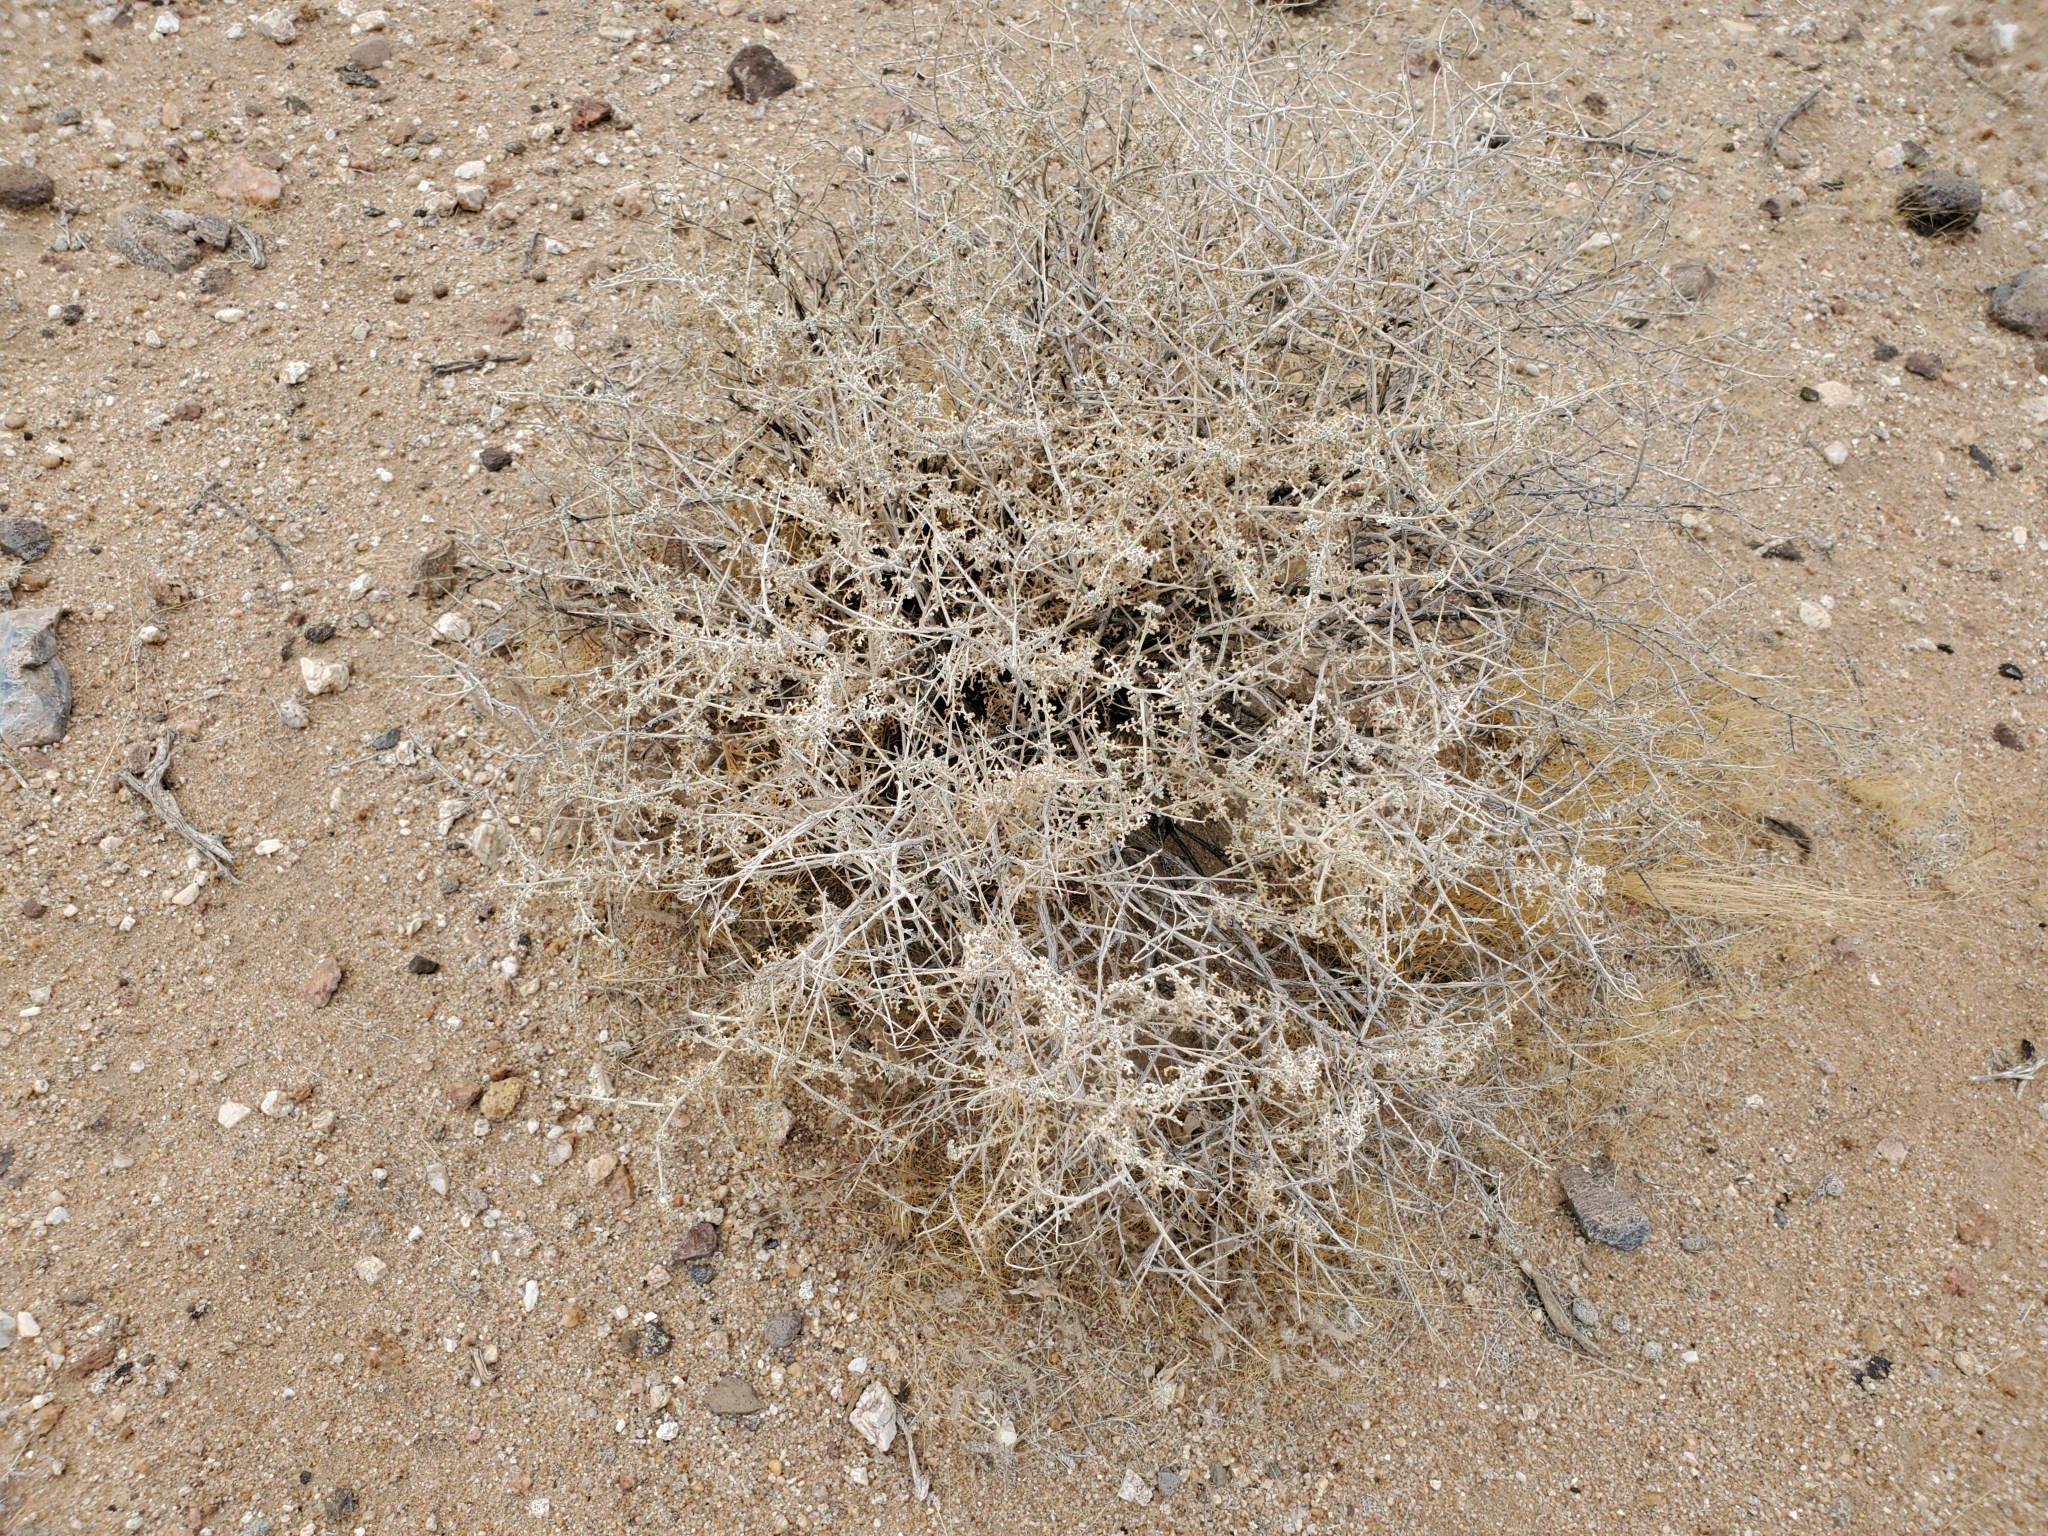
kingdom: Plantae
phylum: Tracheophyta
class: Magnoliopsida
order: Asterales
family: Asteraceae
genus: Ambrosia
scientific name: Ambrosia dumosa
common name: Bur-sage
